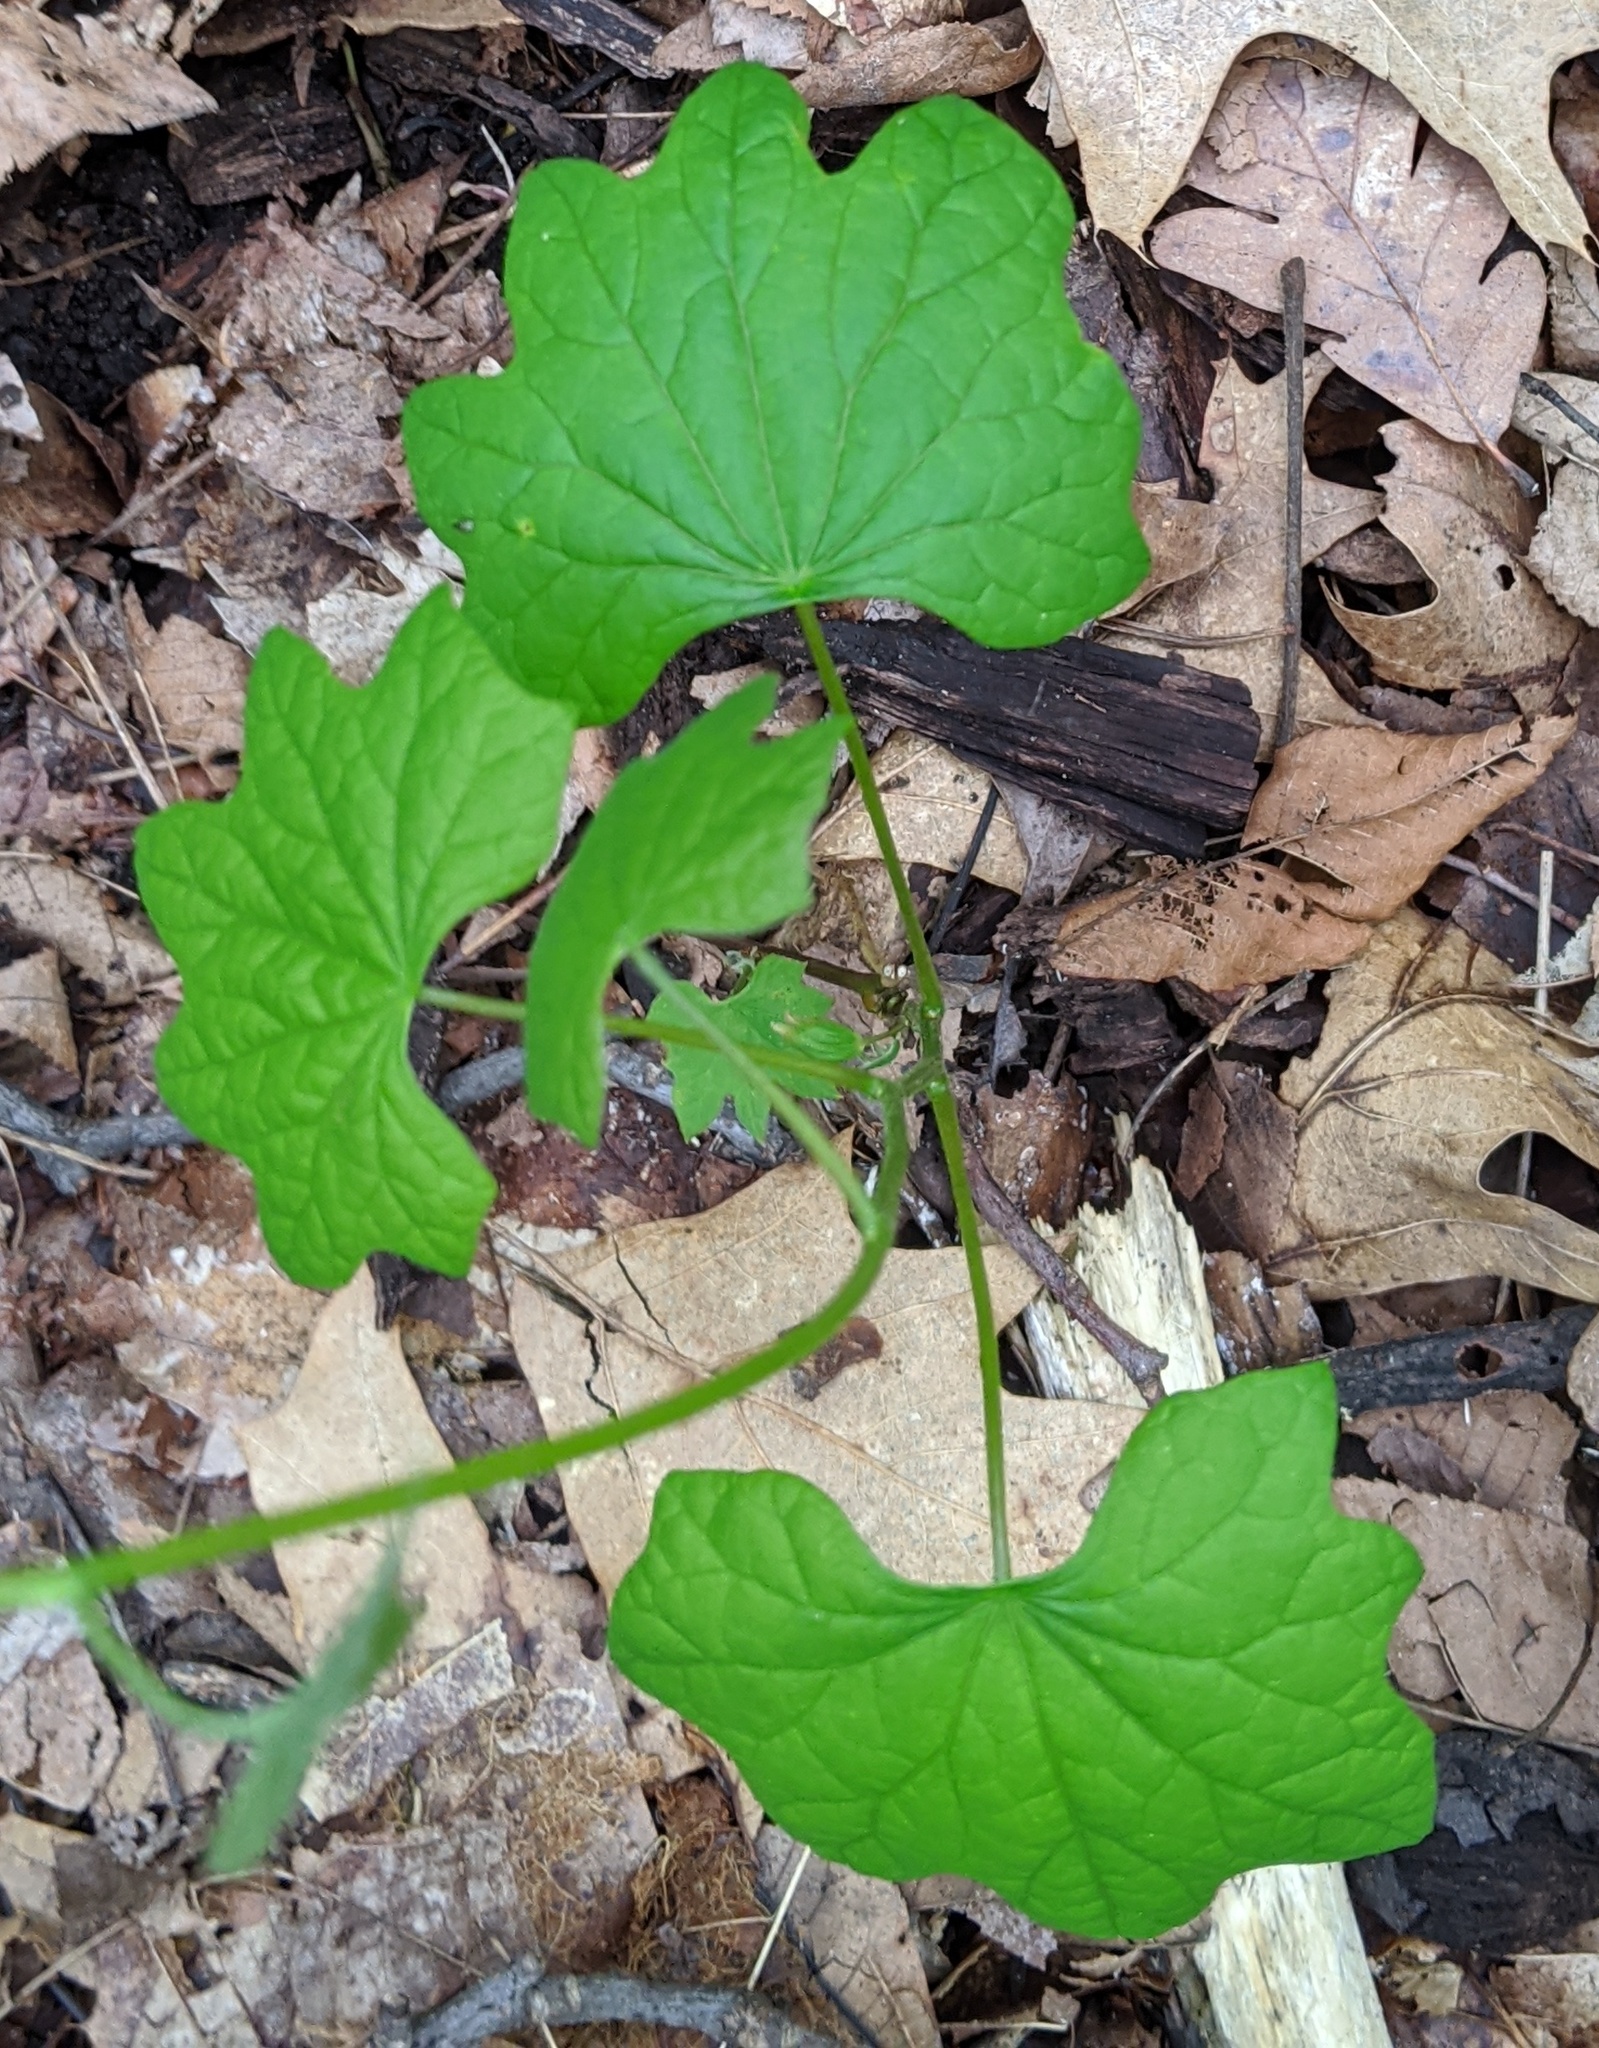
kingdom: Plantae
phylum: Tracheophyta
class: Magnoliopsida
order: Ranunculales
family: Menispermaceae
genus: Menispermum
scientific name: Menispermum canadense
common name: Moonseed
